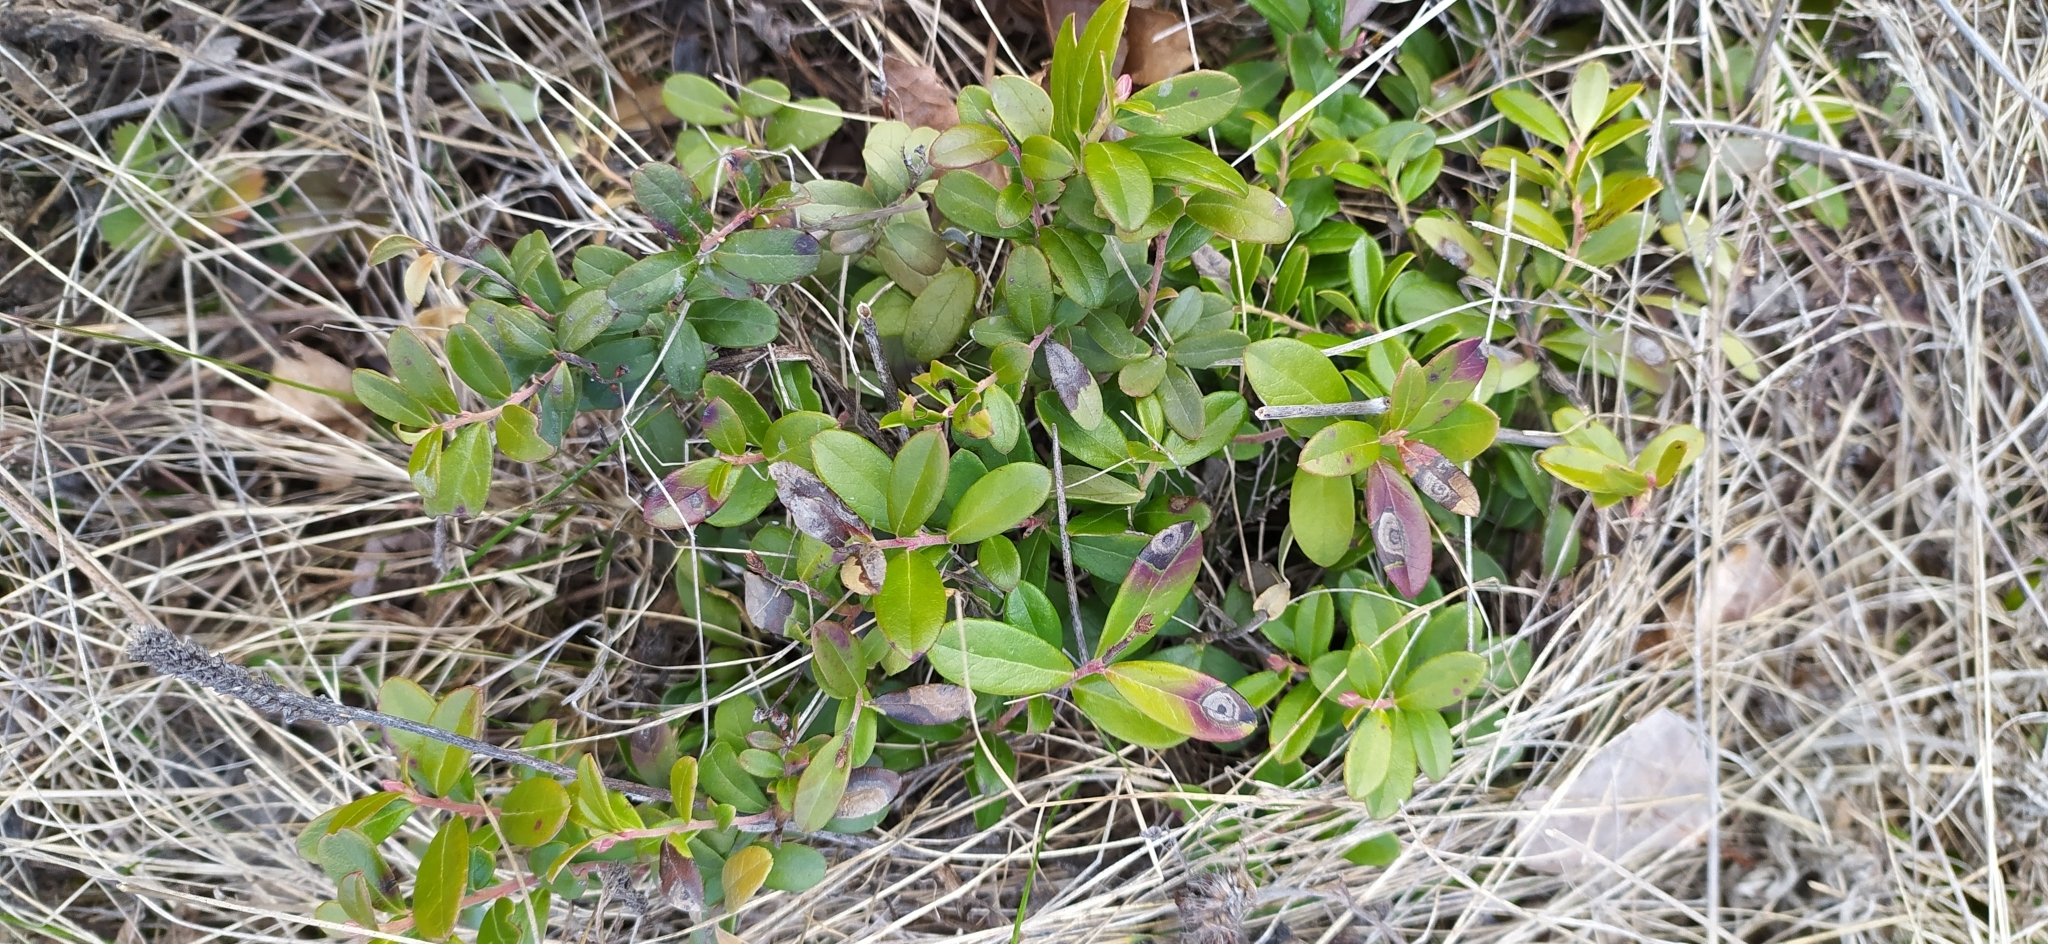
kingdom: Plantae
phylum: Tracheophyta
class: Magnoliopsida
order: Ericales
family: Ericaceae
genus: Vaccinium
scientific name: Vaccinium vitis-idaea
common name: Cowberry
